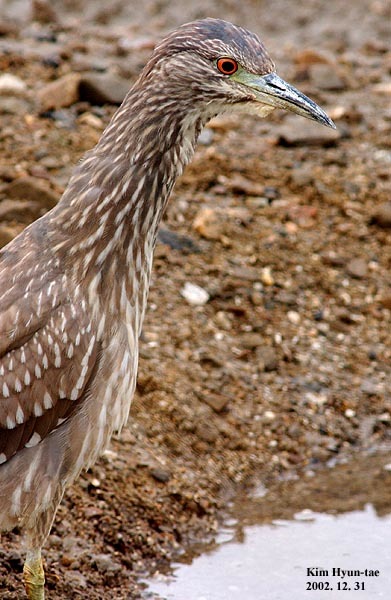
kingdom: Animalia
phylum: Chordata
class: Aves
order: Pelecaniformes
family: Ardeidae
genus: Nycticorax
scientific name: Nycticorax nycticorax
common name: Black-crowned night heron
